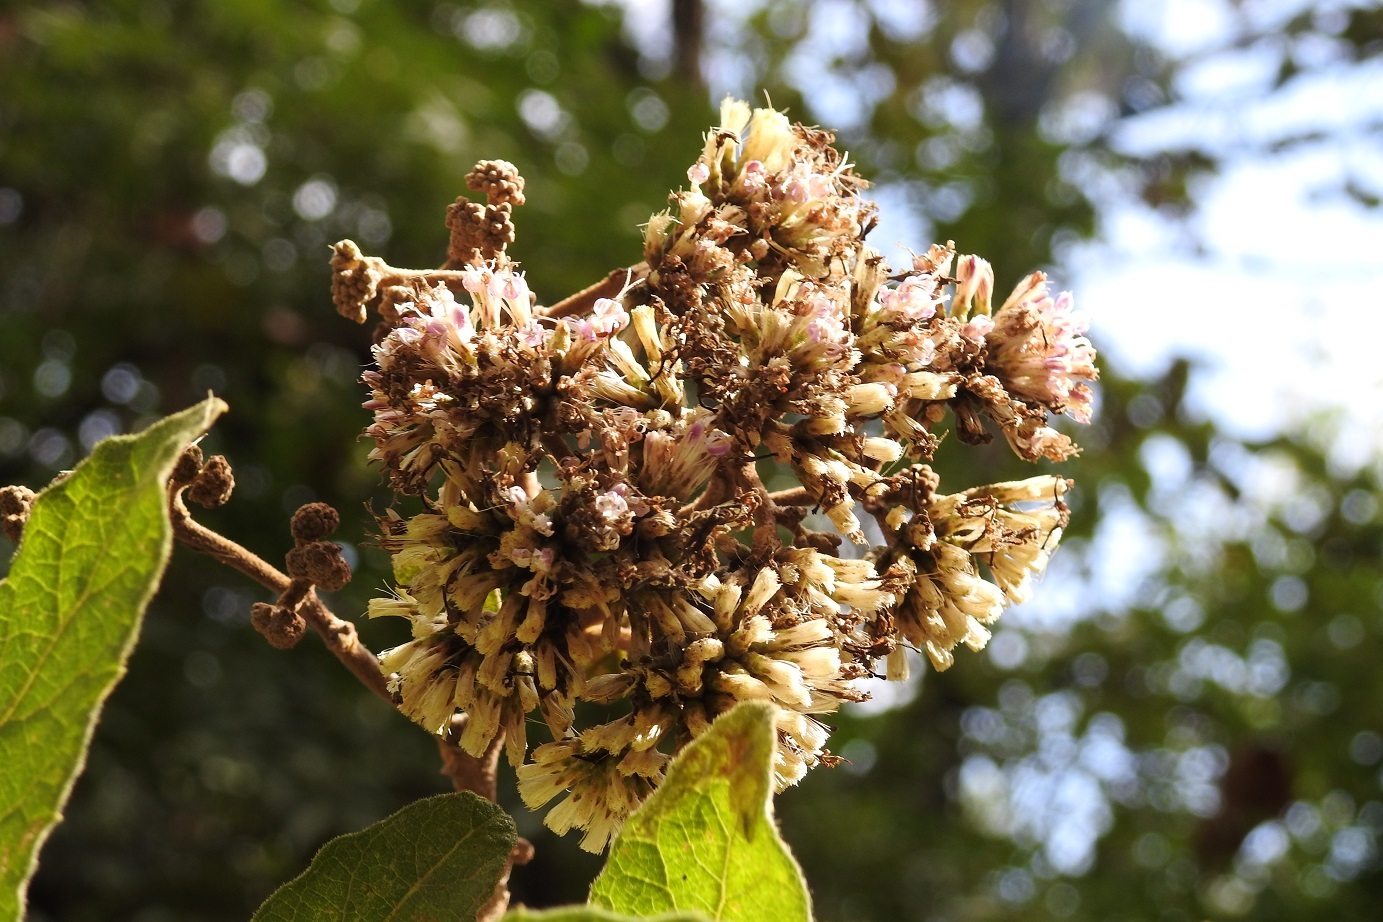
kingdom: Plantae
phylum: Tracheophyta
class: Magnoliopsida
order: Asterales
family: Asteraceae
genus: Eremosis
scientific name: Eremosis leiocarpa
